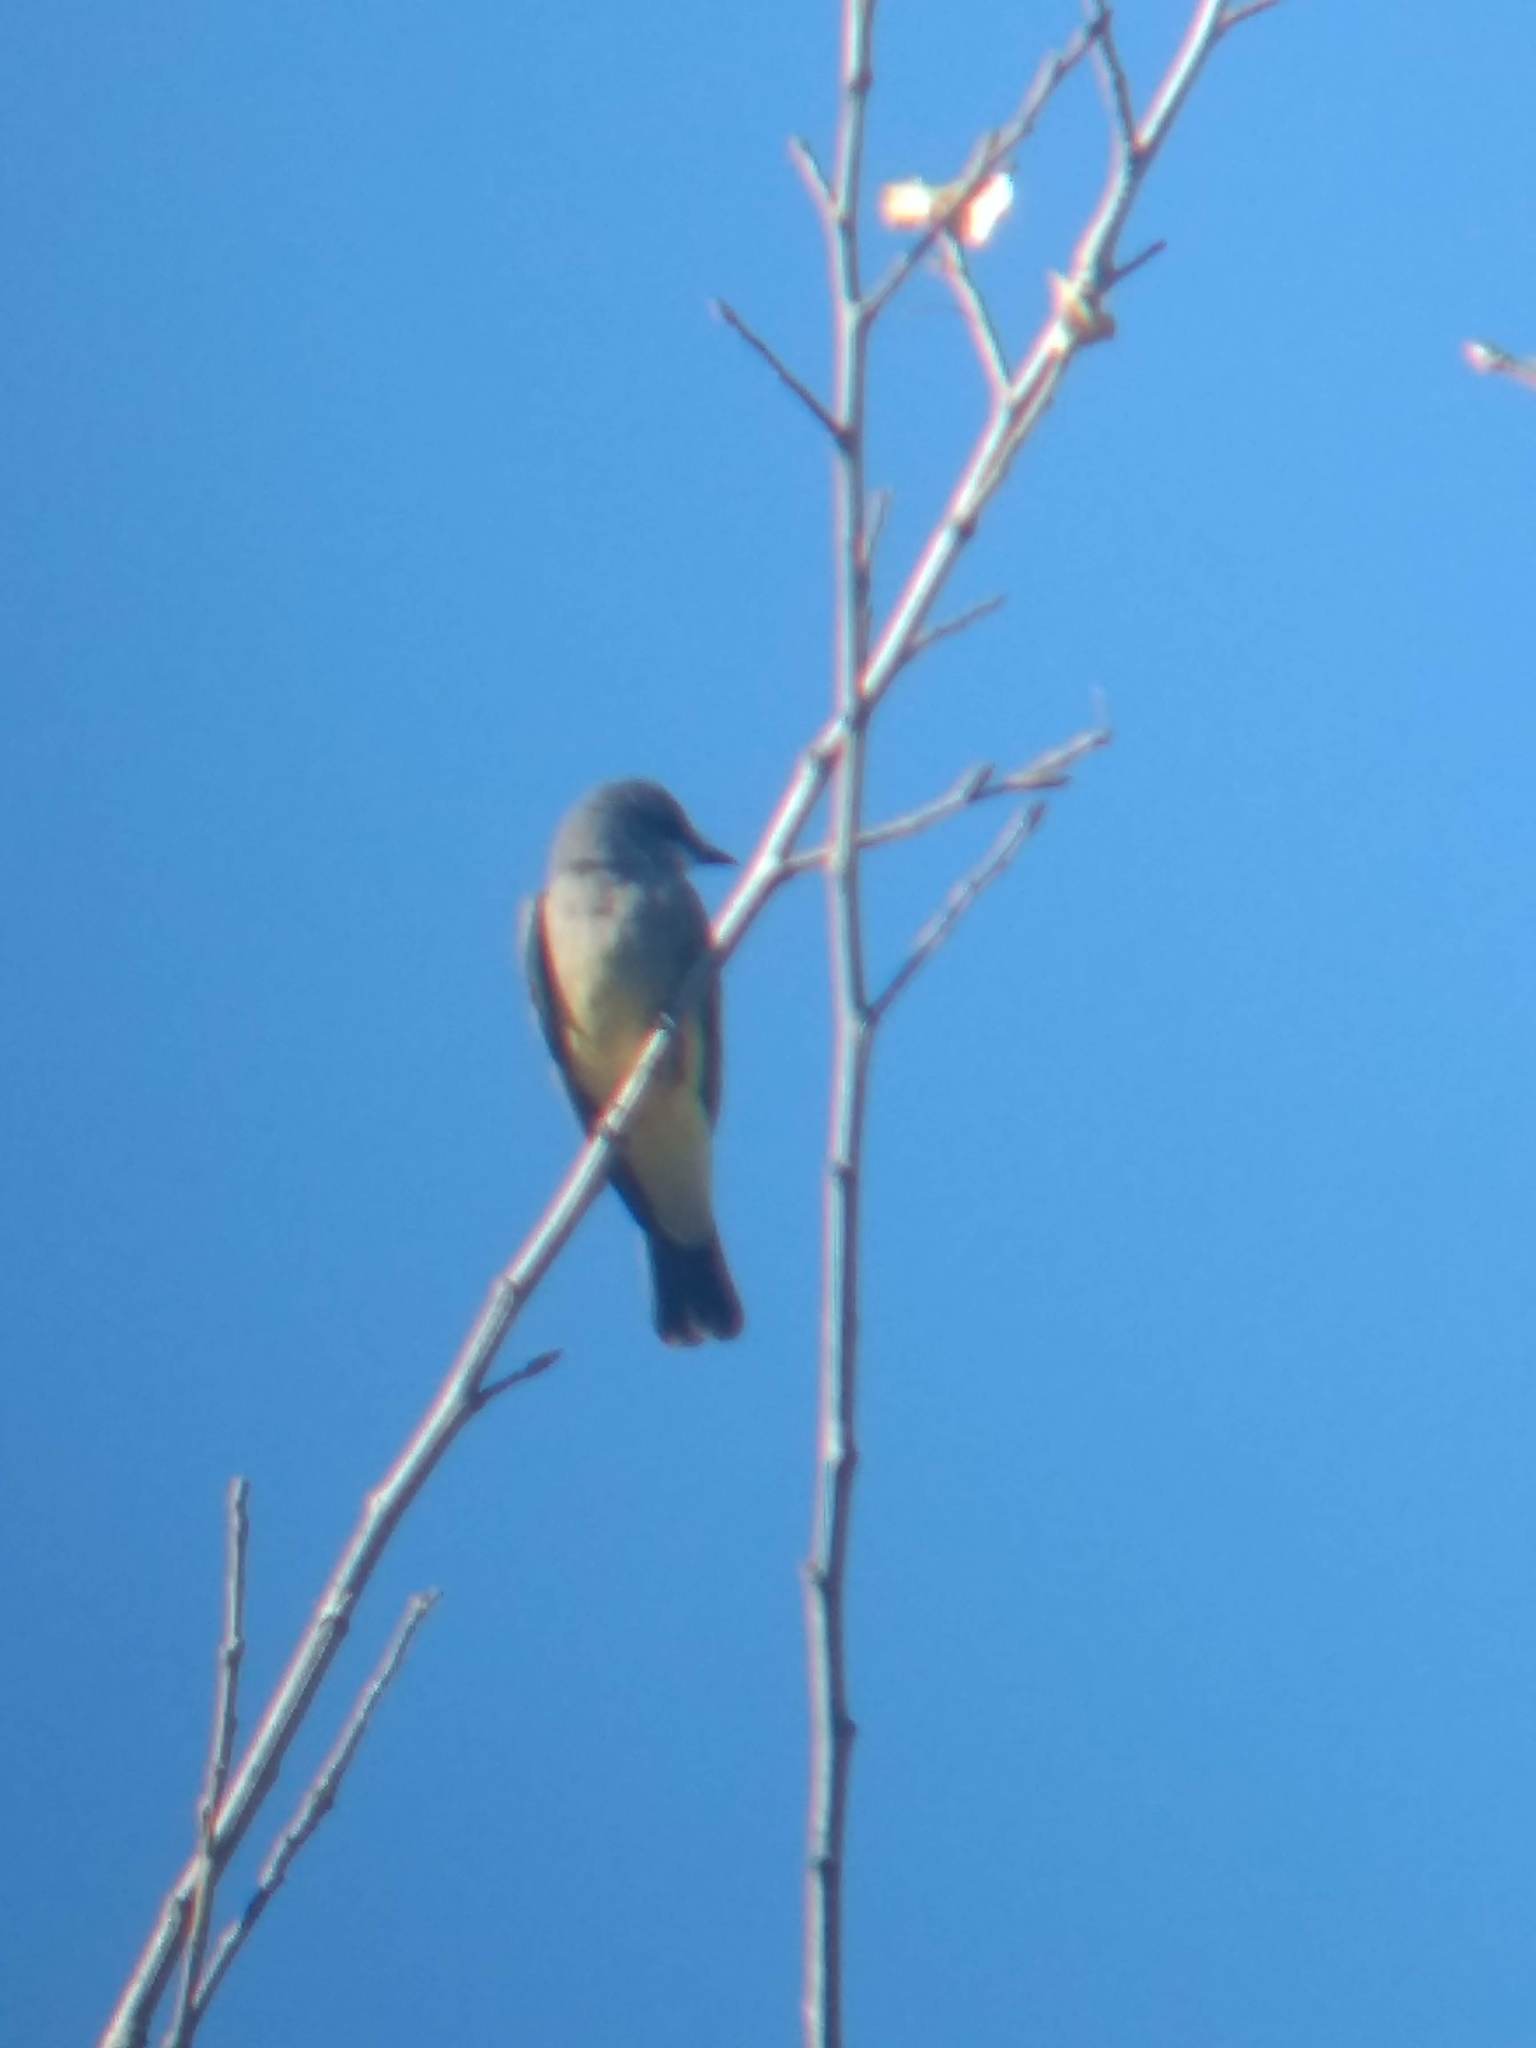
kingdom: Animalia
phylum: Chordata
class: Aves
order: Passeriformes
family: Tyrannidae
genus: Tyrannus
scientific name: Tyrannus vociferans
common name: Cassin's kingbird
